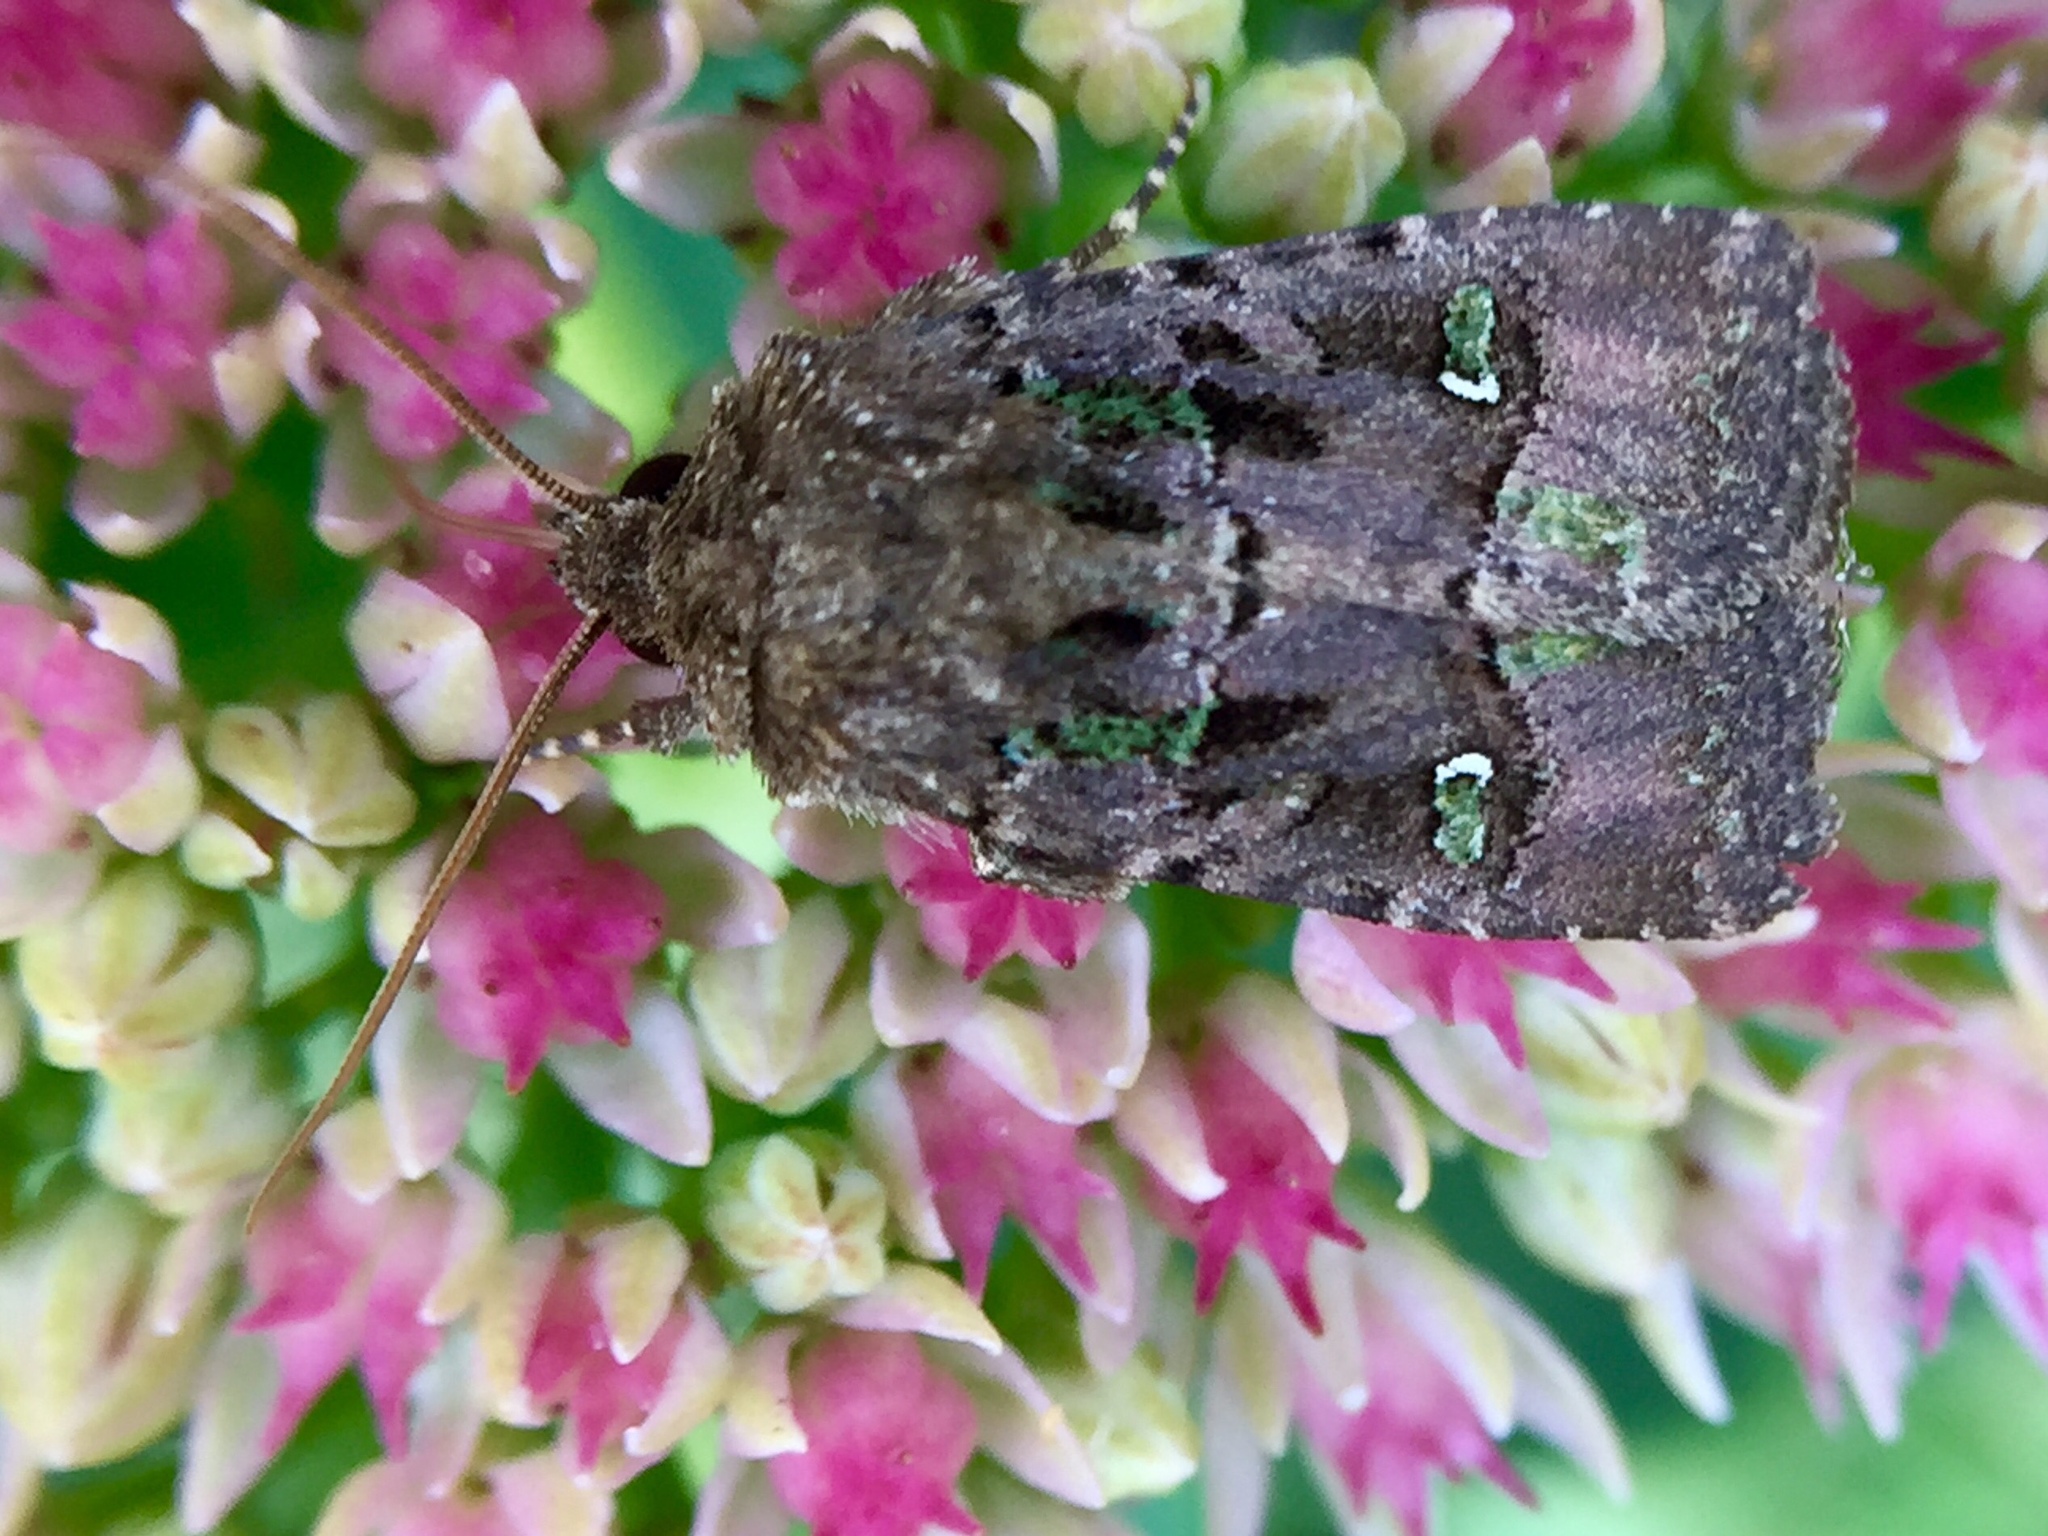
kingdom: Animalia
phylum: Arthropoda
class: Insecta
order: Lepidoptera
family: Noctuidae
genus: Lacinipolia
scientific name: Lacinipolia renigera
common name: Kidney-spotted minor
